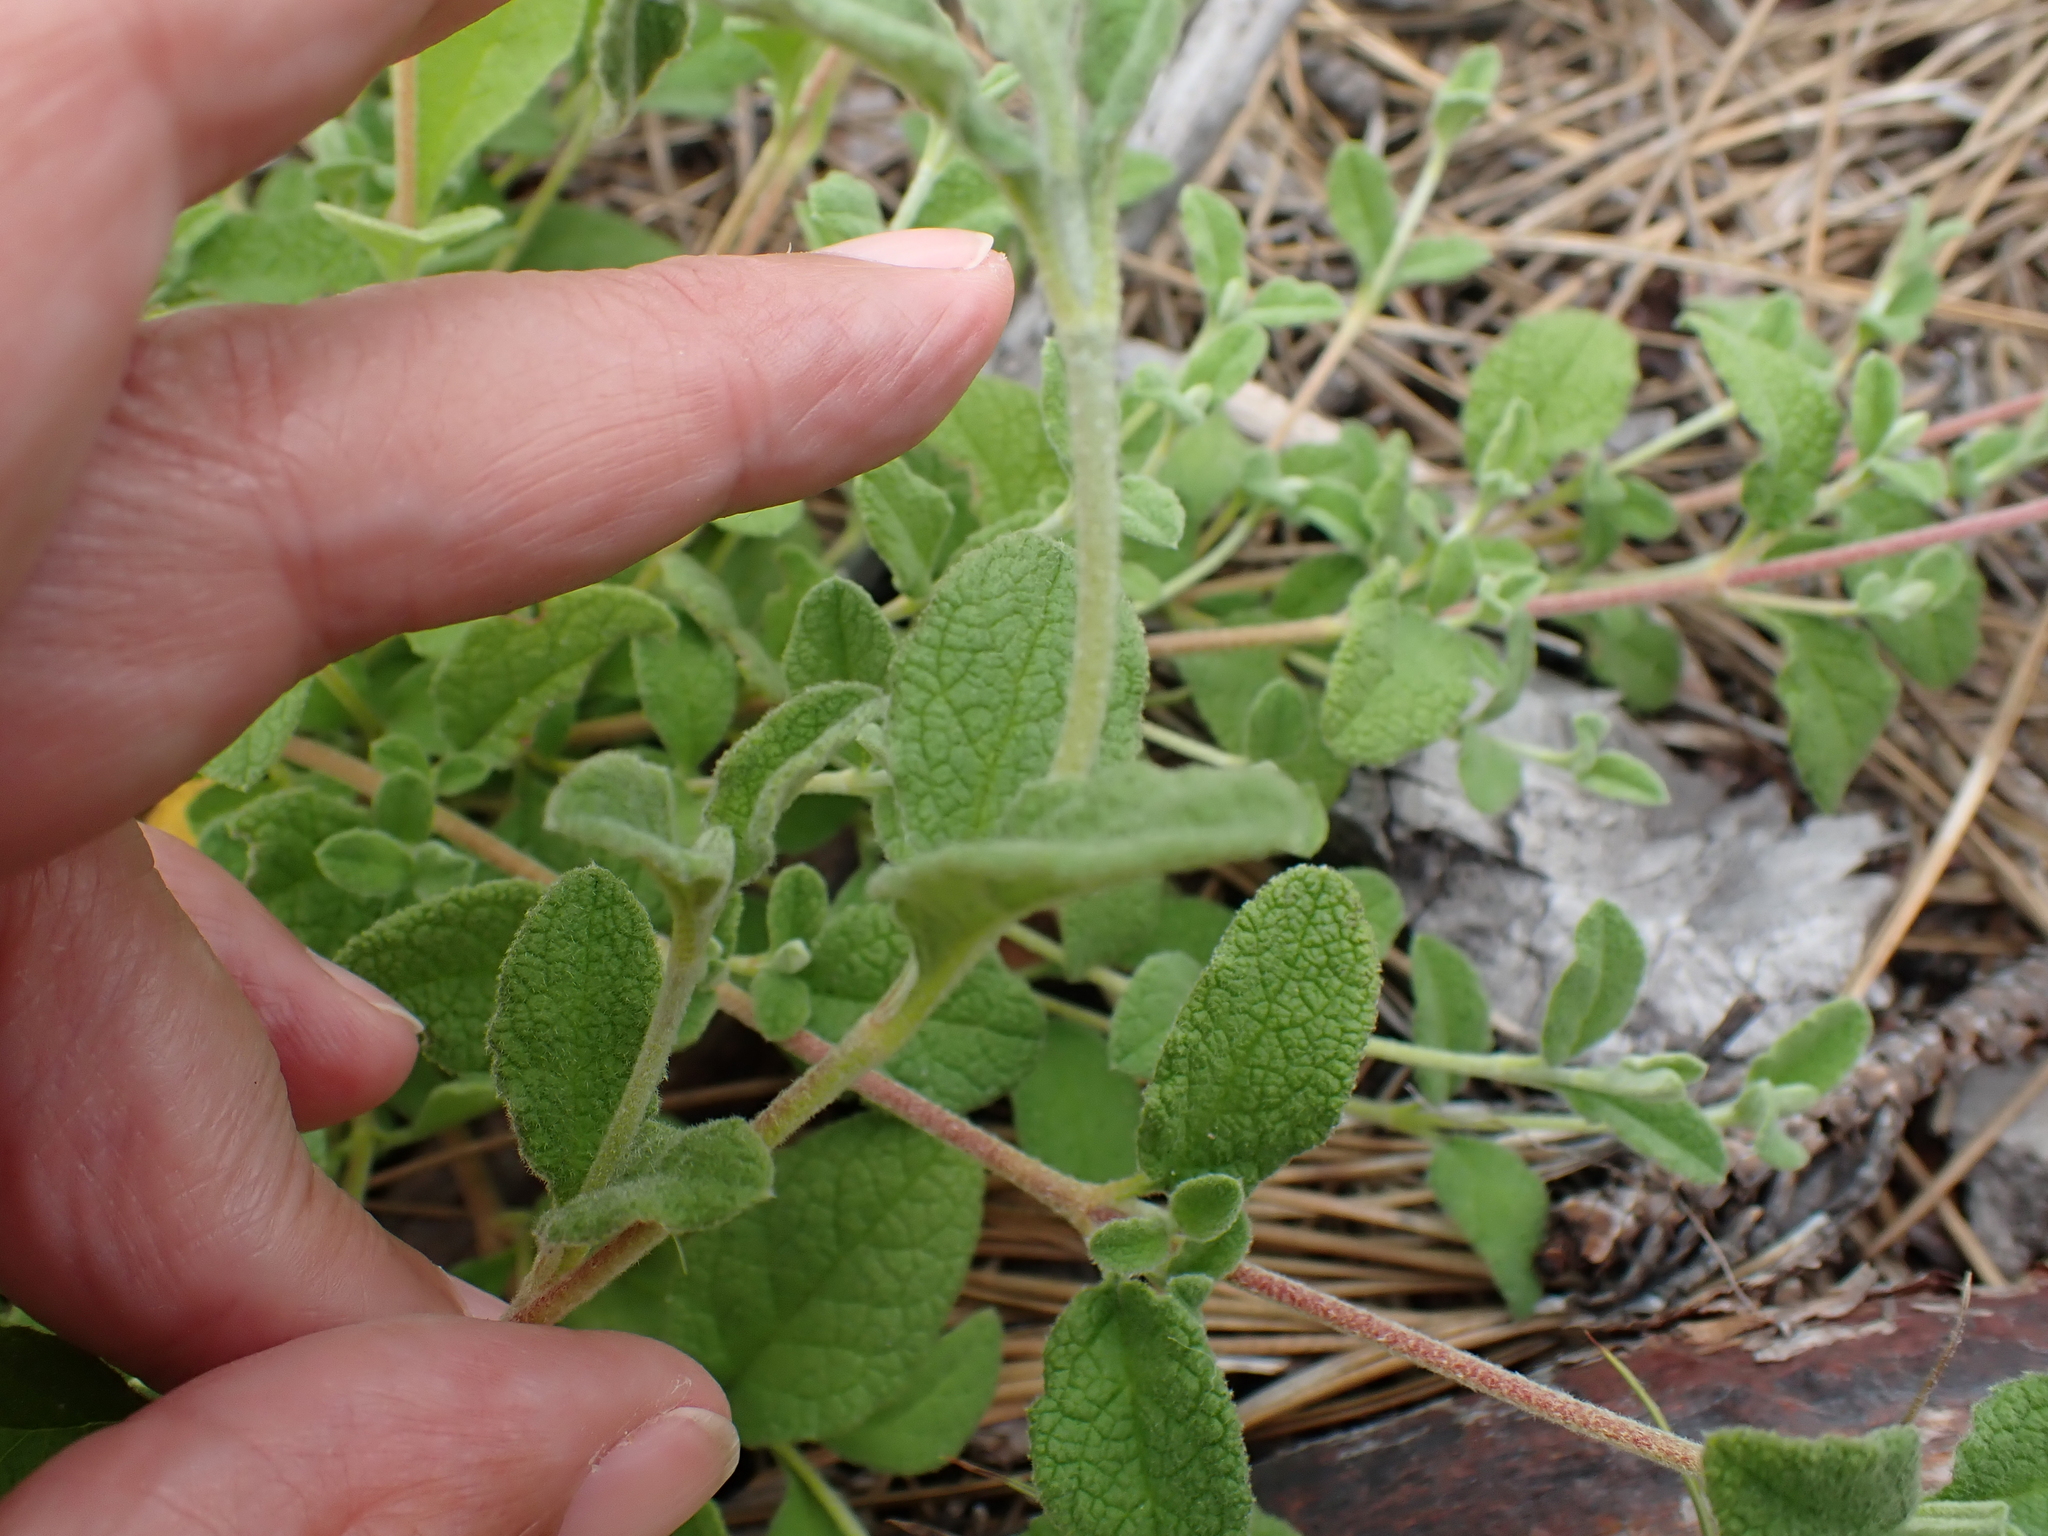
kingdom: Plantae
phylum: Tracheophyta
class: Magnoliopsida
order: Malvales
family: Cistaceae
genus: Cistus
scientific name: Cistus salviifolius
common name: Salvia cistus
